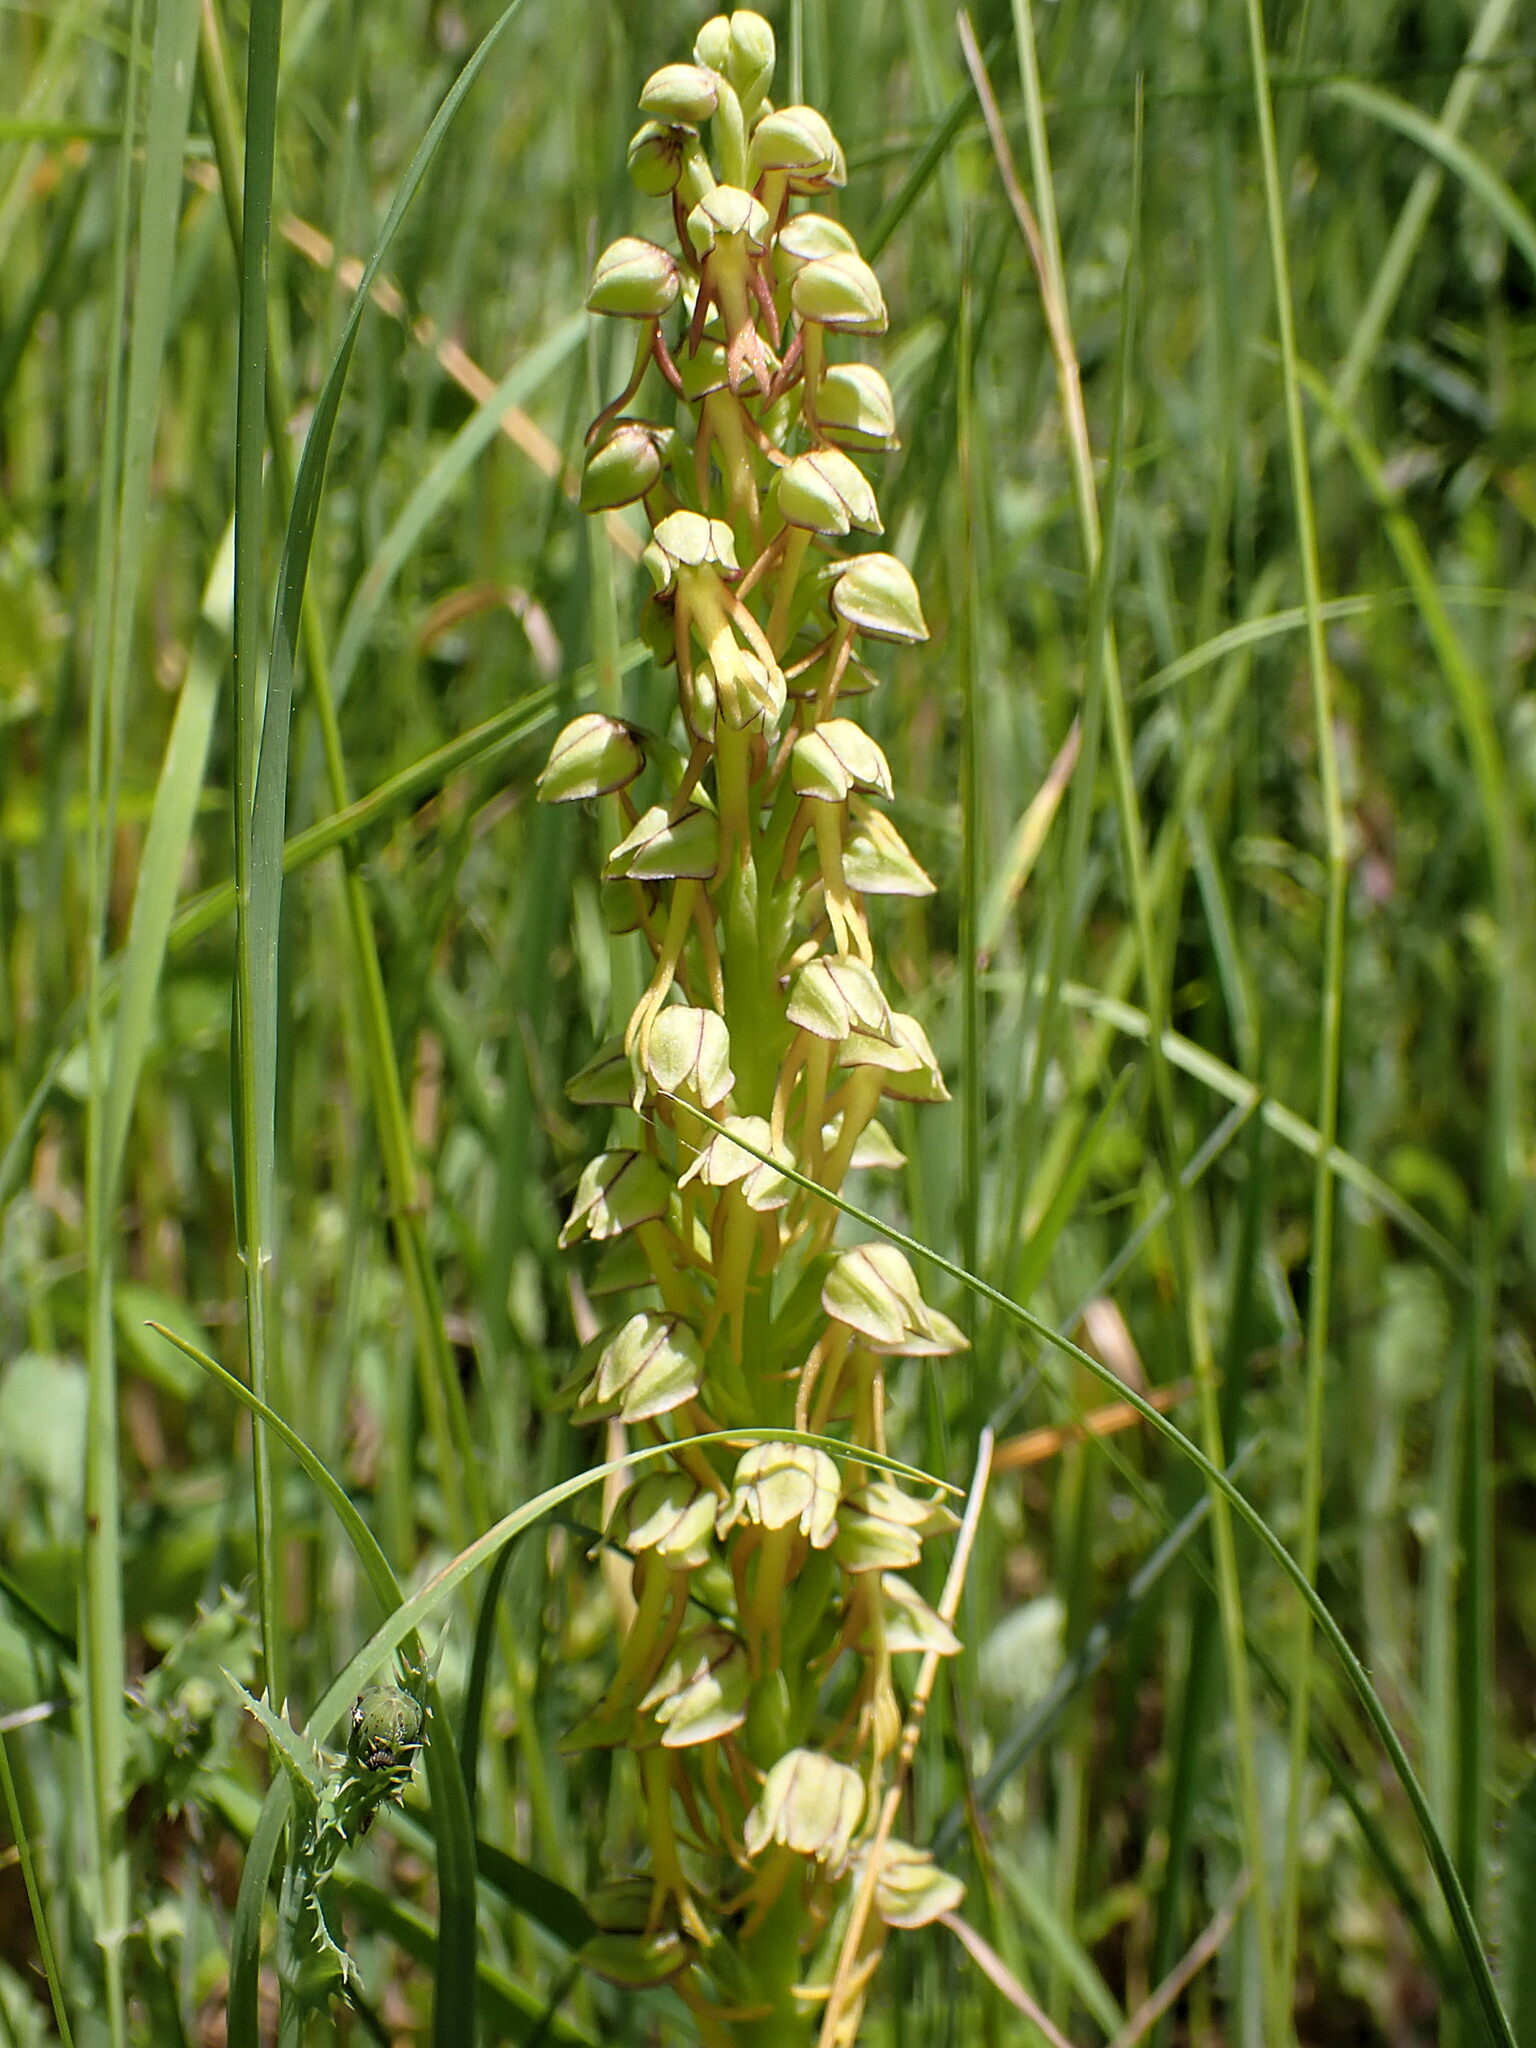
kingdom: Plantae
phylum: Tracheophyta
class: Liliopsida
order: Asparagales
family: Orchidaceae
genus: Orchis
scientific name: Orchis anthropophora
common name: Man orchid
